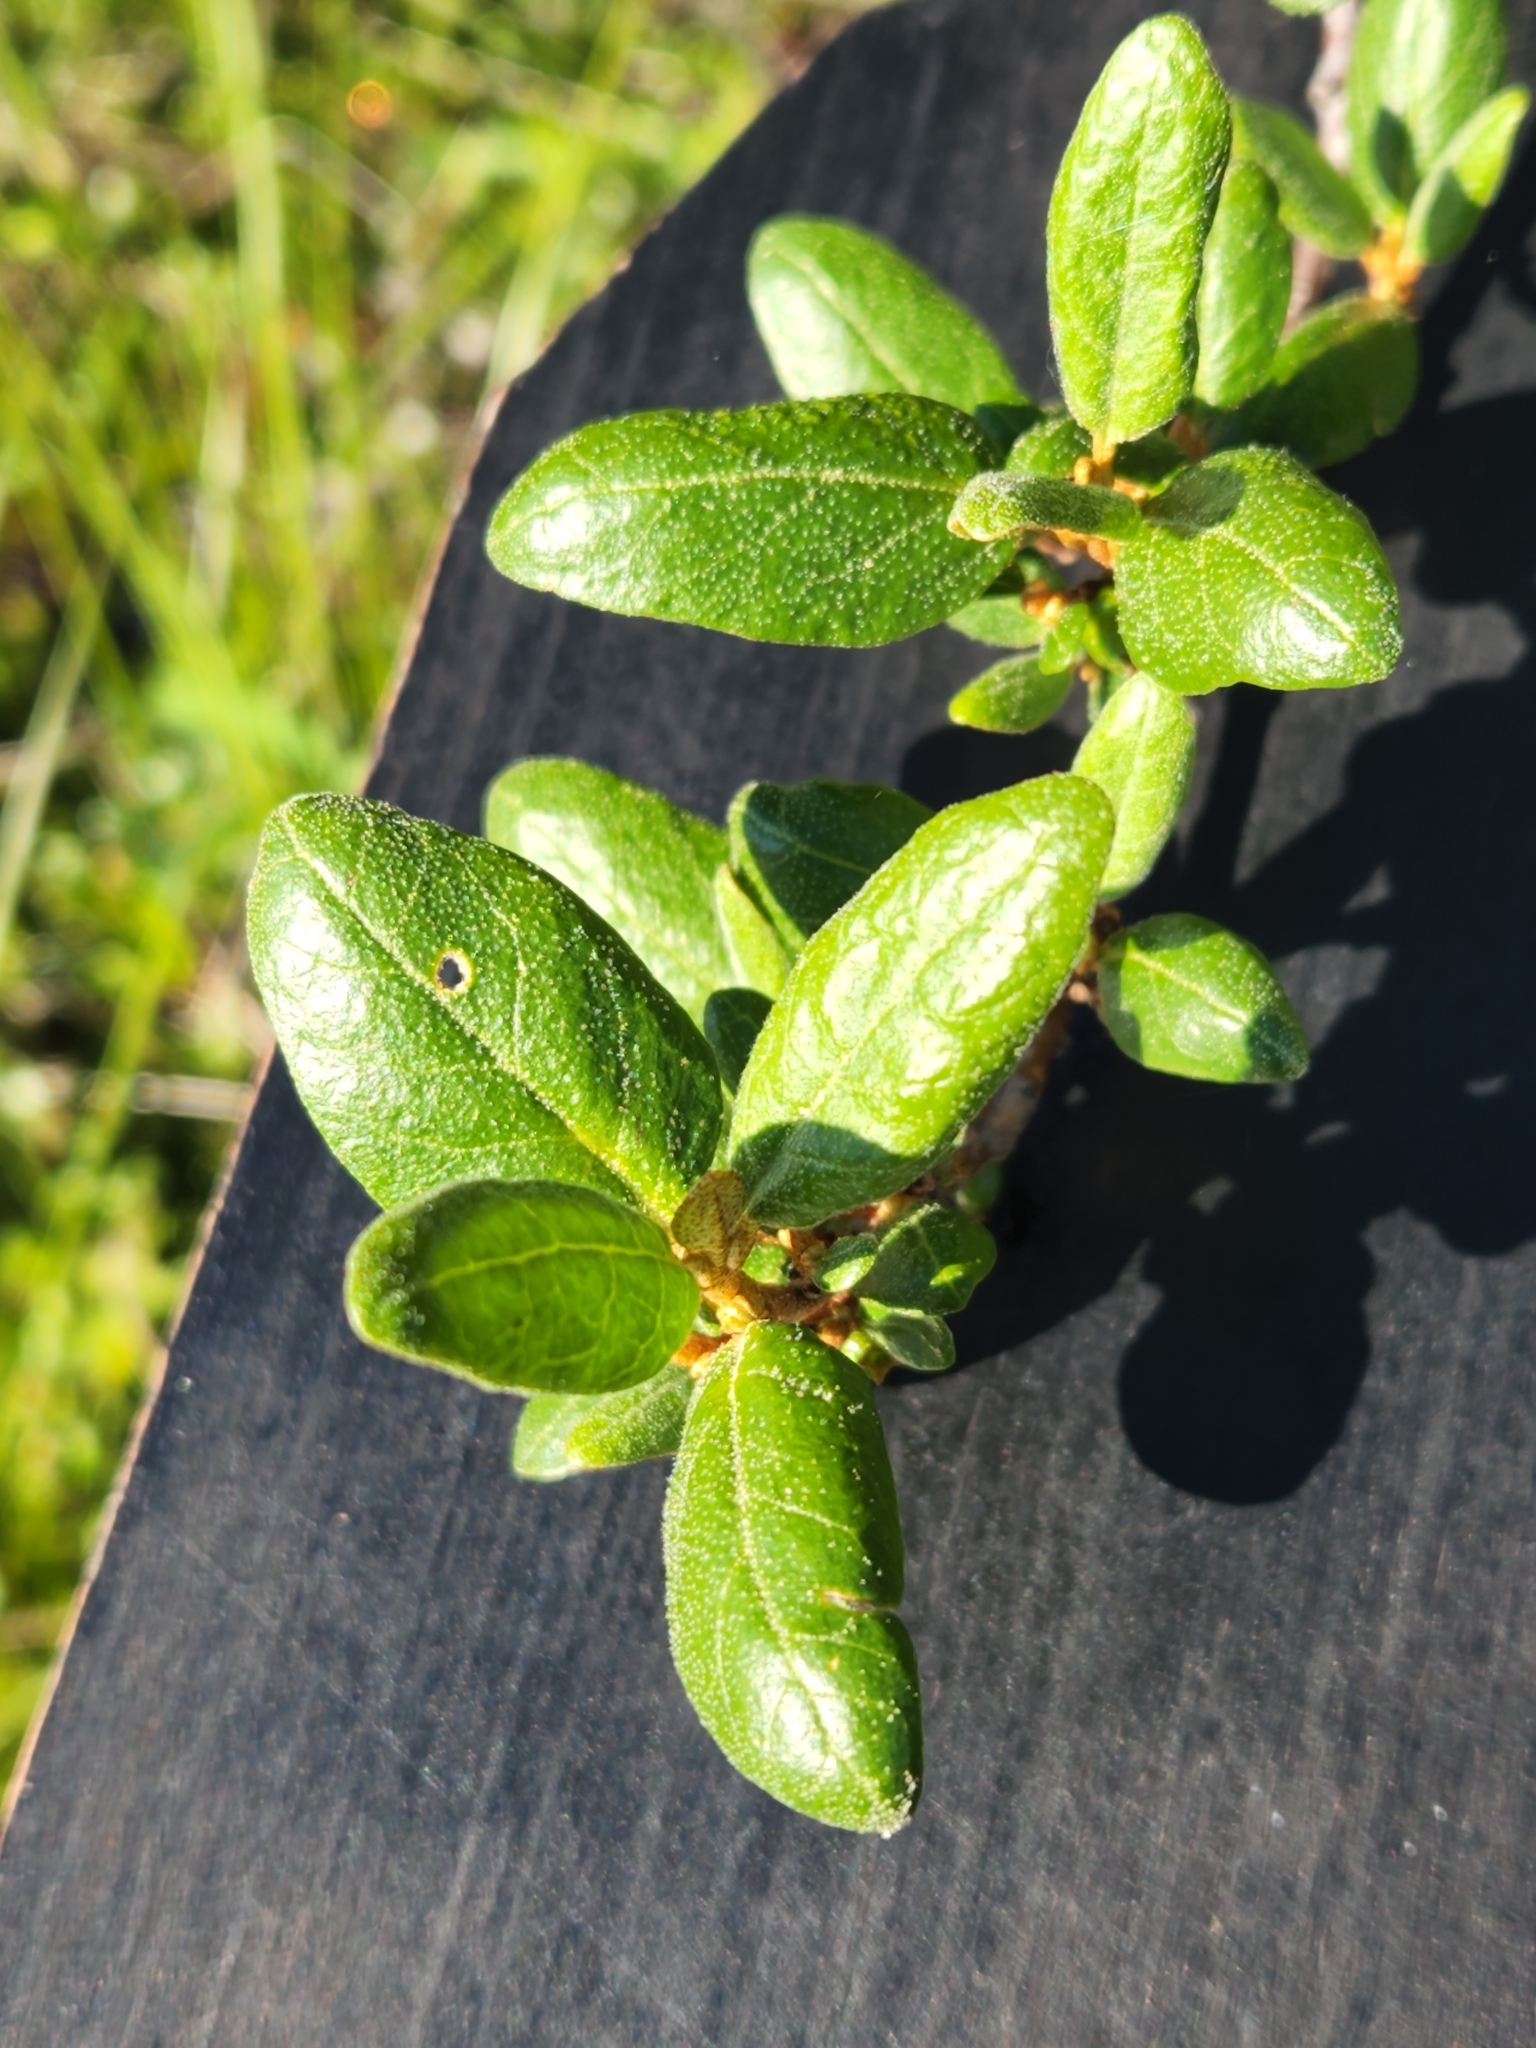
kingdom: Plantae
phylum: Tracheophyta
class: Magnoliopsida
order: Rosales
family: Elaeagnaceae
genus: Shepherdia
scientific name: Shepherdia canadensis
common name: Soapberry
